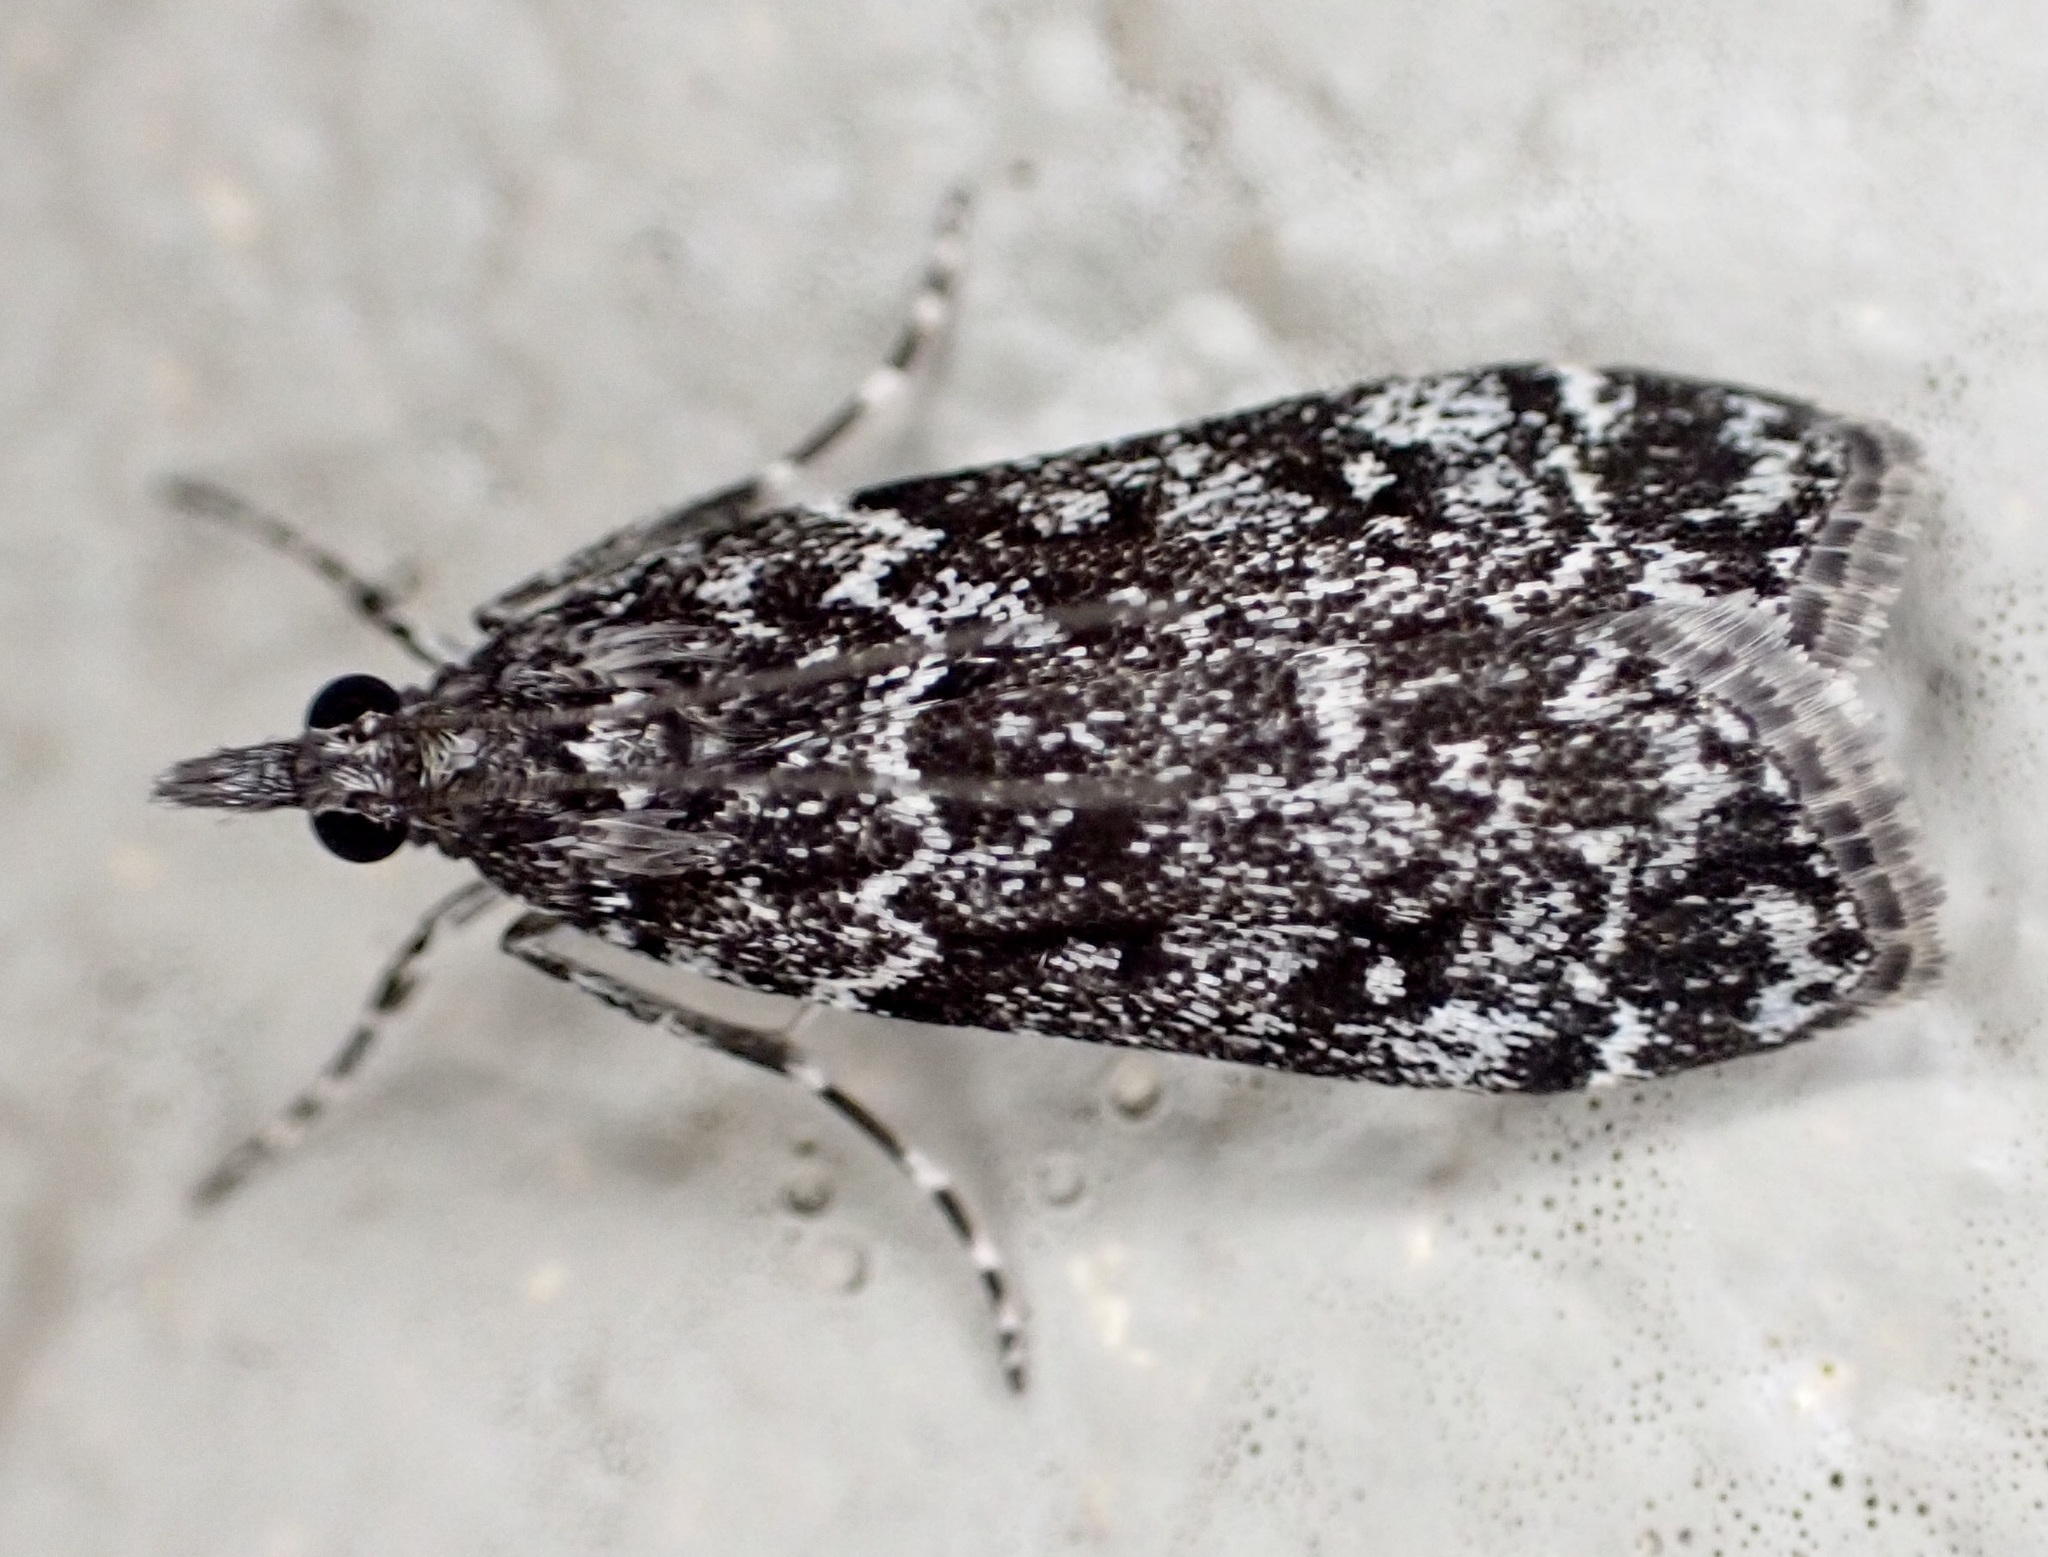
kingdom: Animalia
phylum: Arthropoda
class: Insecta
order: Lepidoptera
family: Crambidae
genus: Eudonia
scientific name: Eudonia philerga
